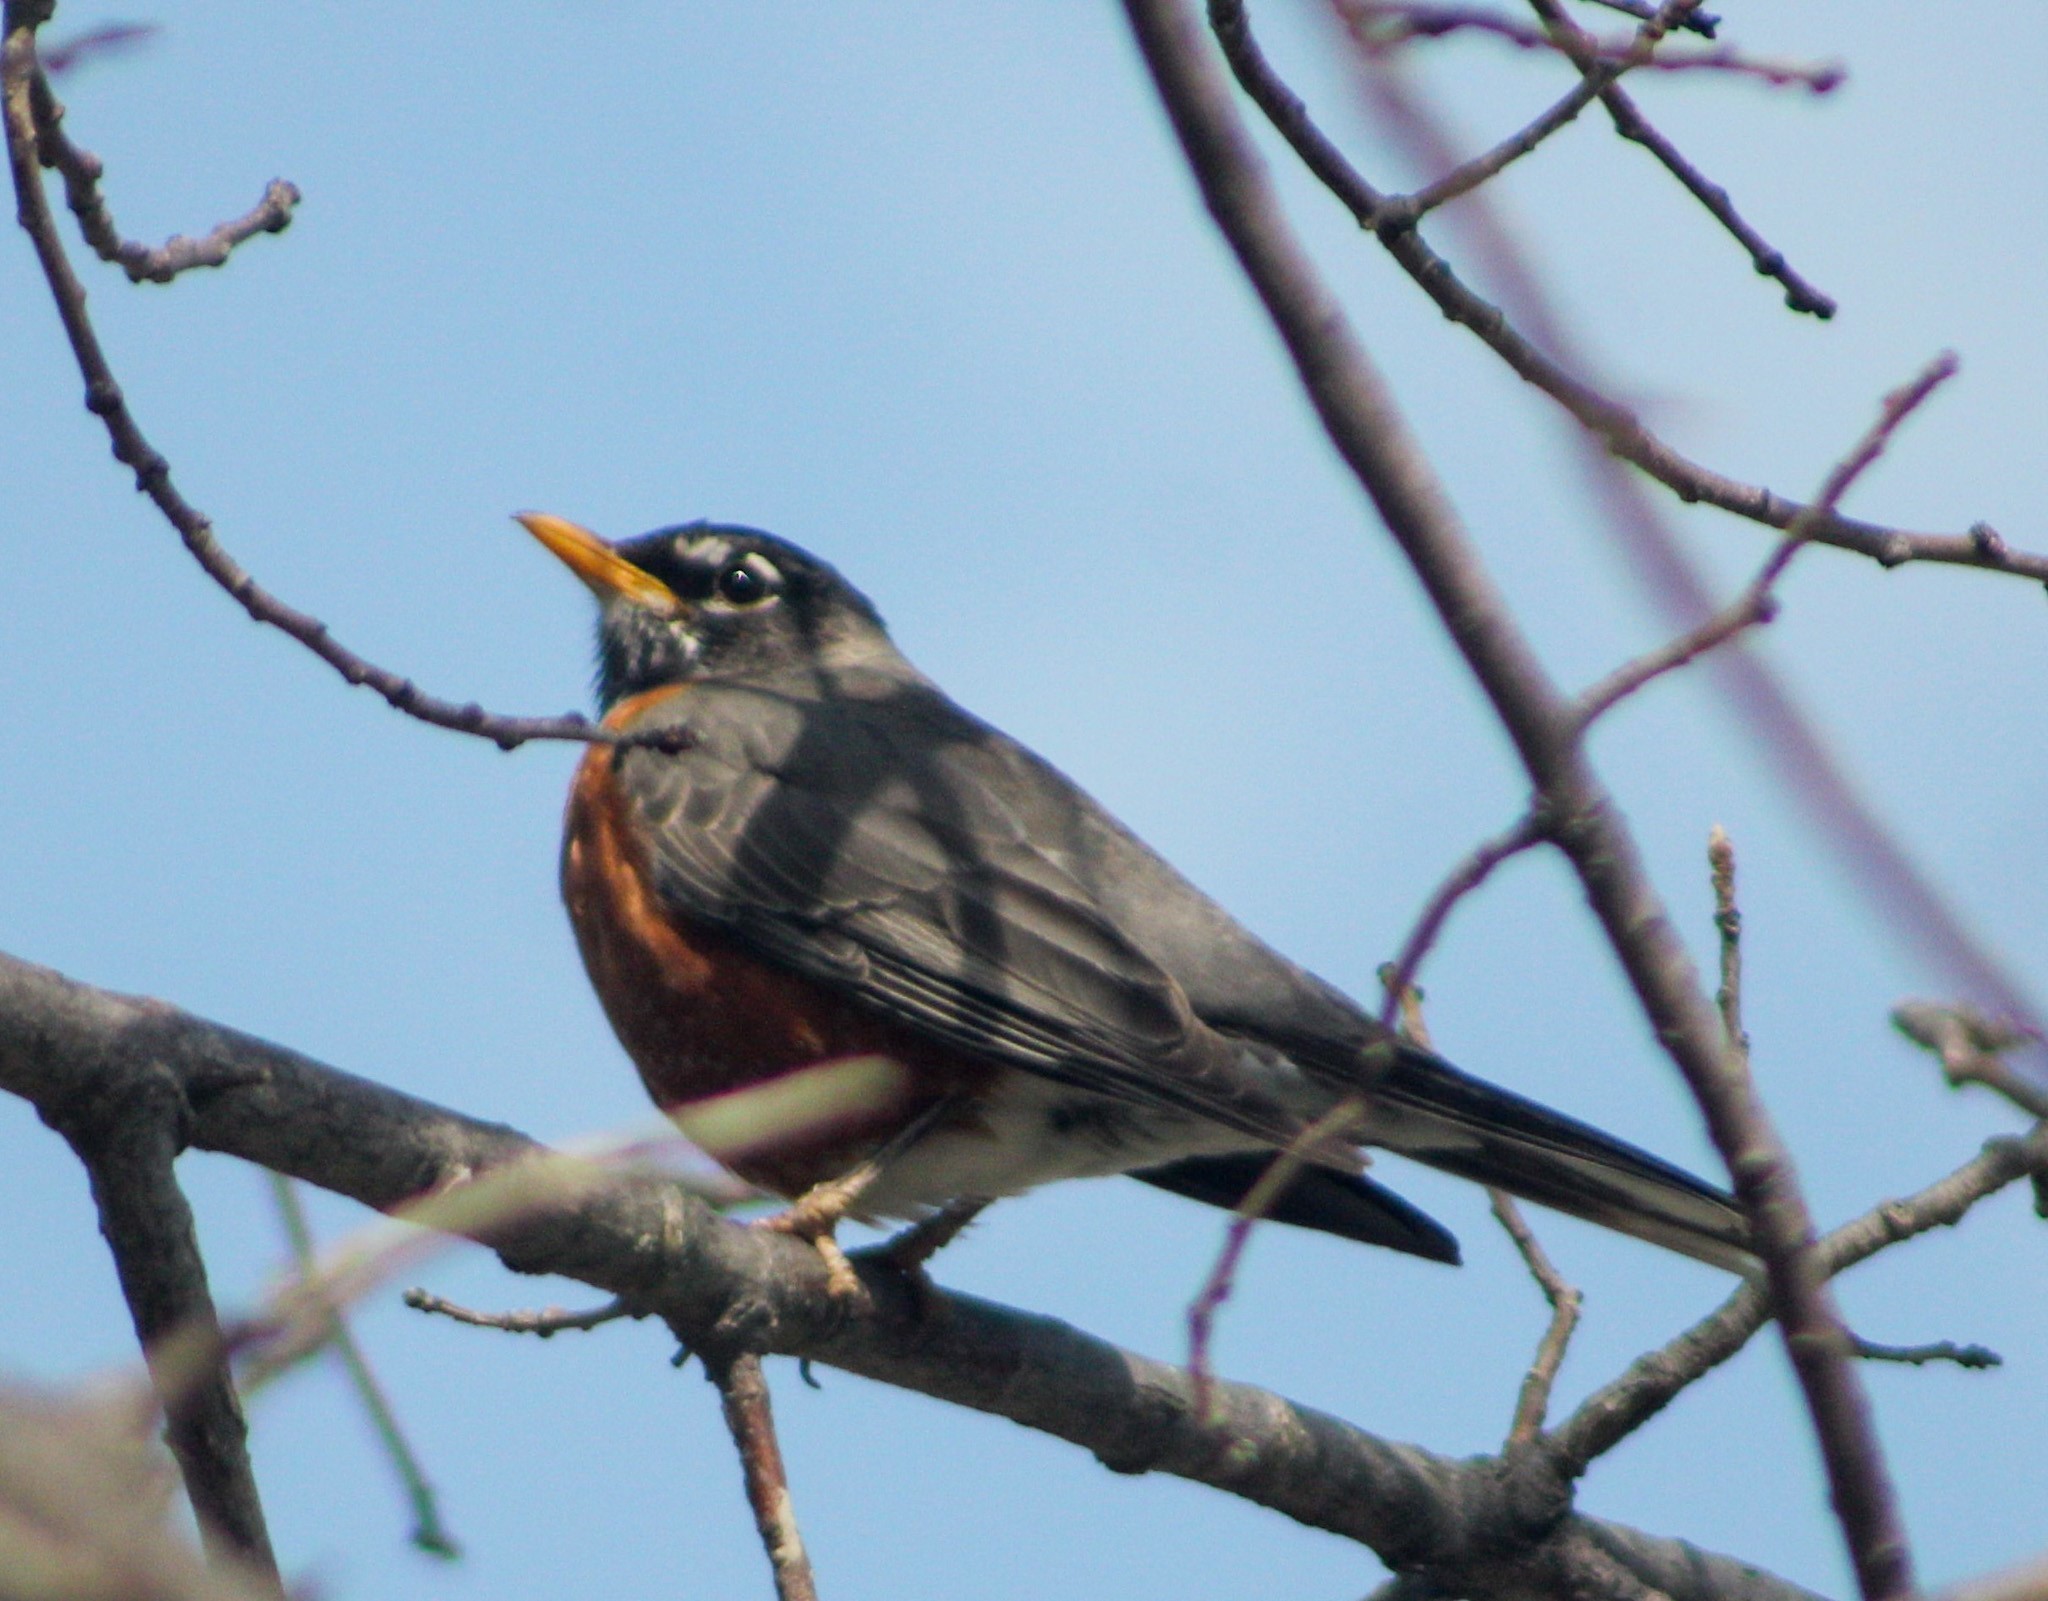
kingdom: Animalia
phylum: Chordata
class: Aves
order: Passeriformes
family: Turdidae
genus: Turdus
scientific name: Turdus migratorius
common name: American robin
